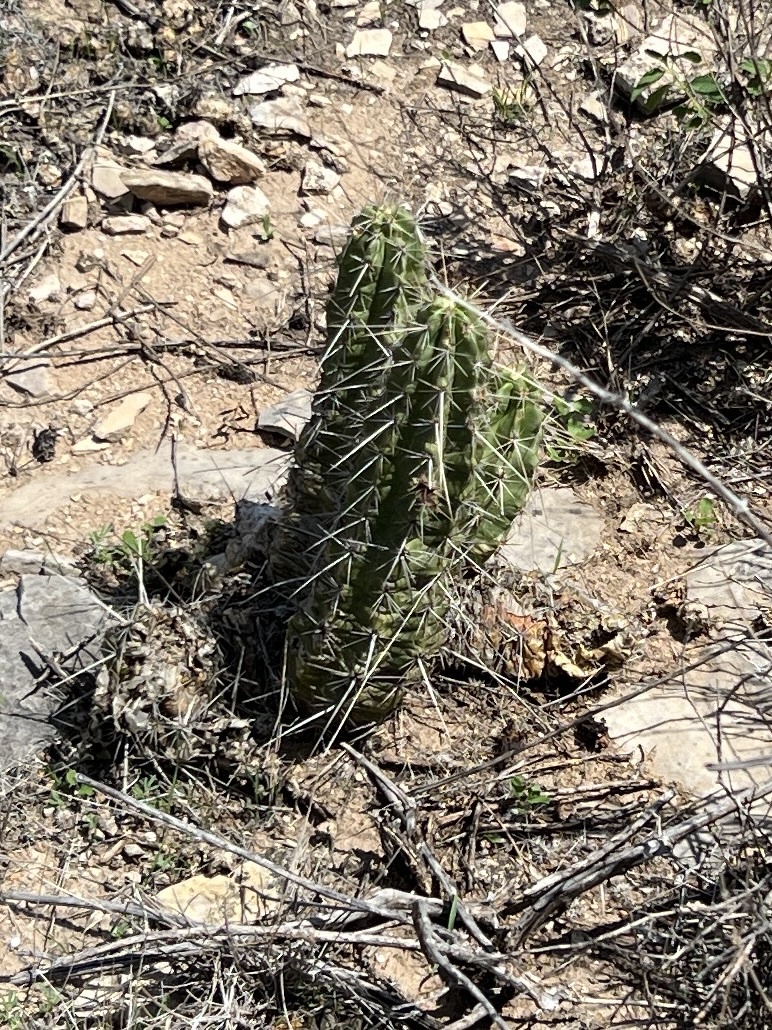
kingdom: Plantae
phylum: Tracheophyta
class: Magnoliopsida
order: Caryophyllales
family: Cactaceae
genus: Echinocereus
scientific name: Echinocereus enneacanthus
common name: Pitaya
